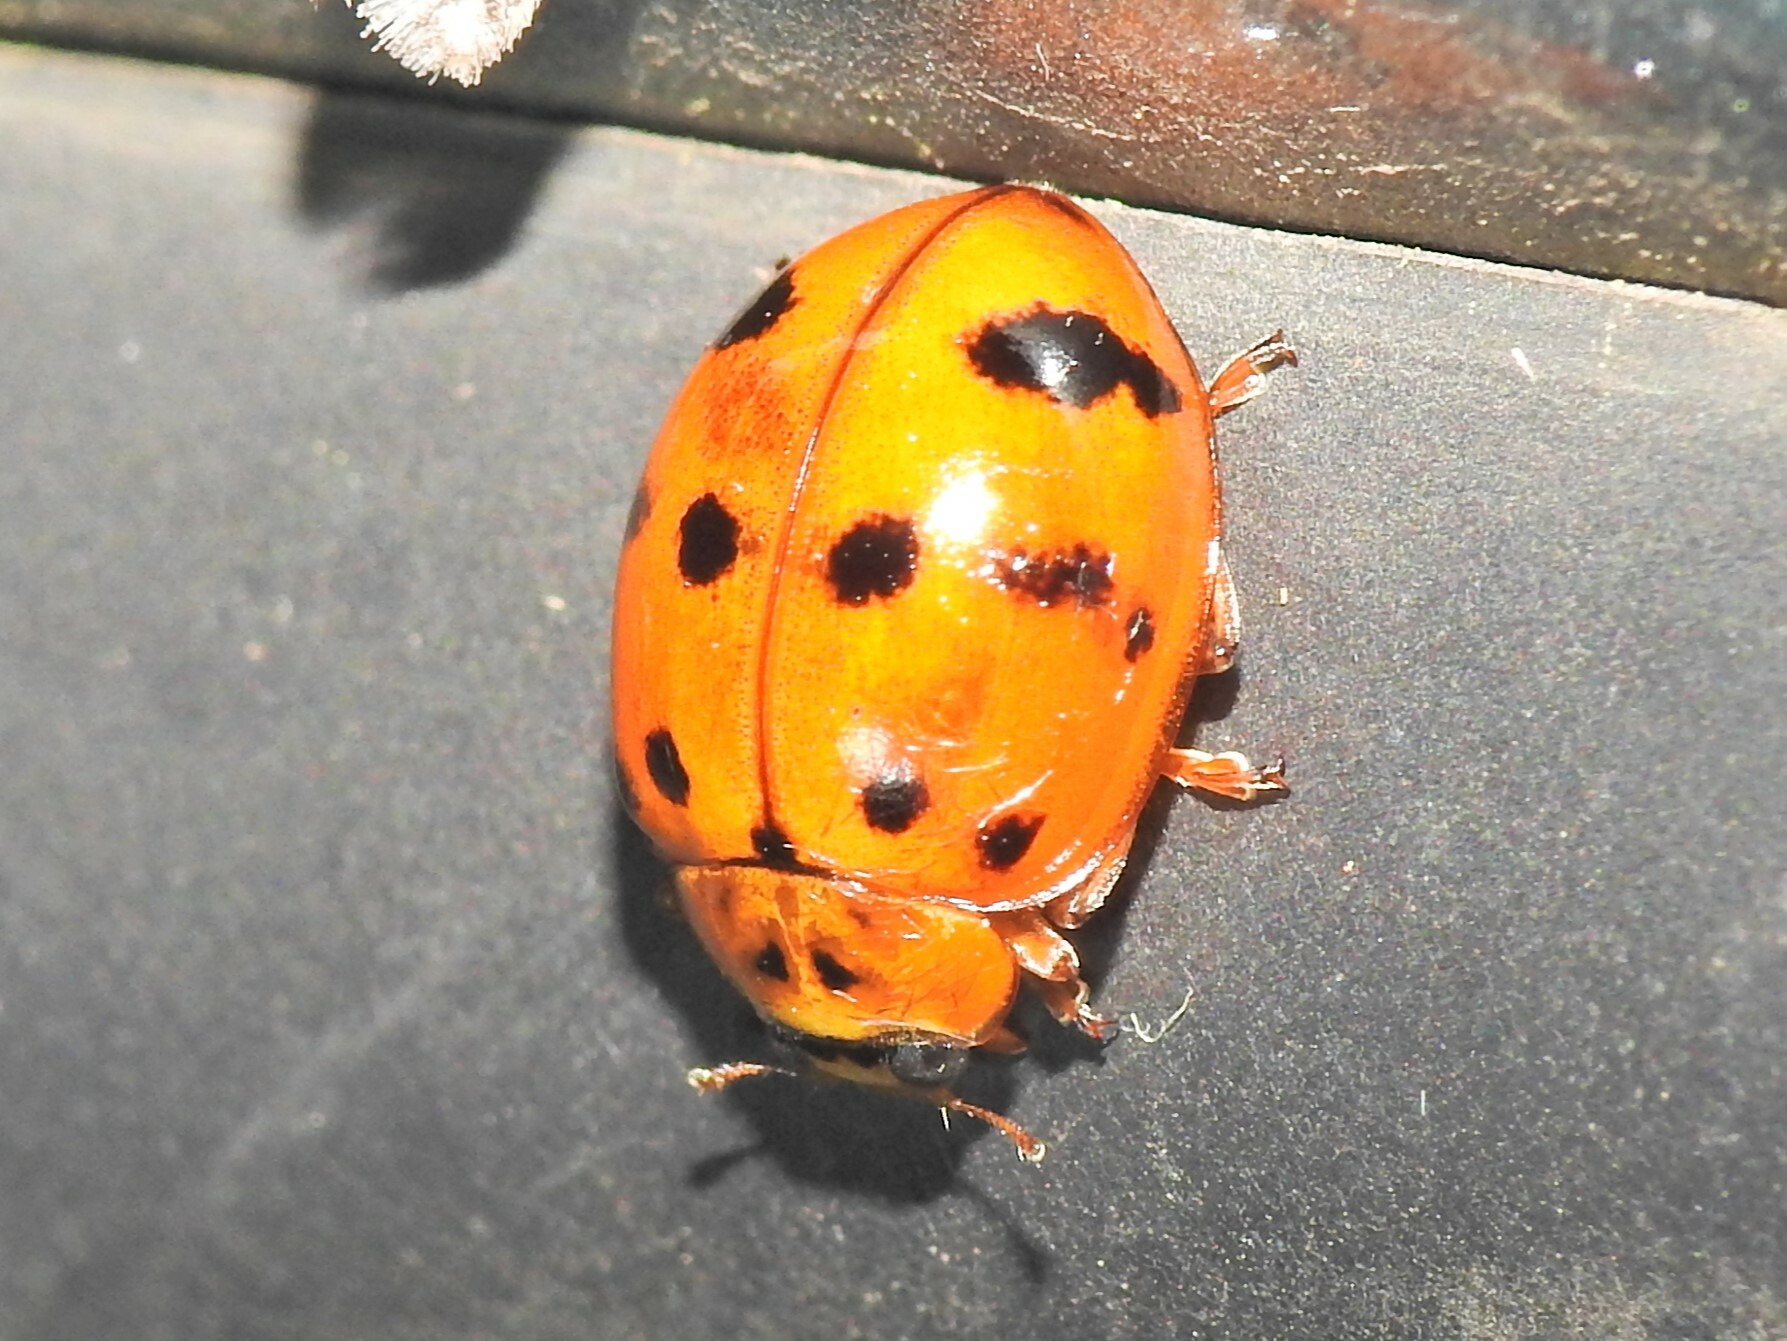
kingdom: Animalia
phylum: Arthropoda
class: Insecta
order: Coleoptera
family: Coccinellidae
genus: Harmonia
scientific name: Harmonia octomaculata
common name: Lady beetle
